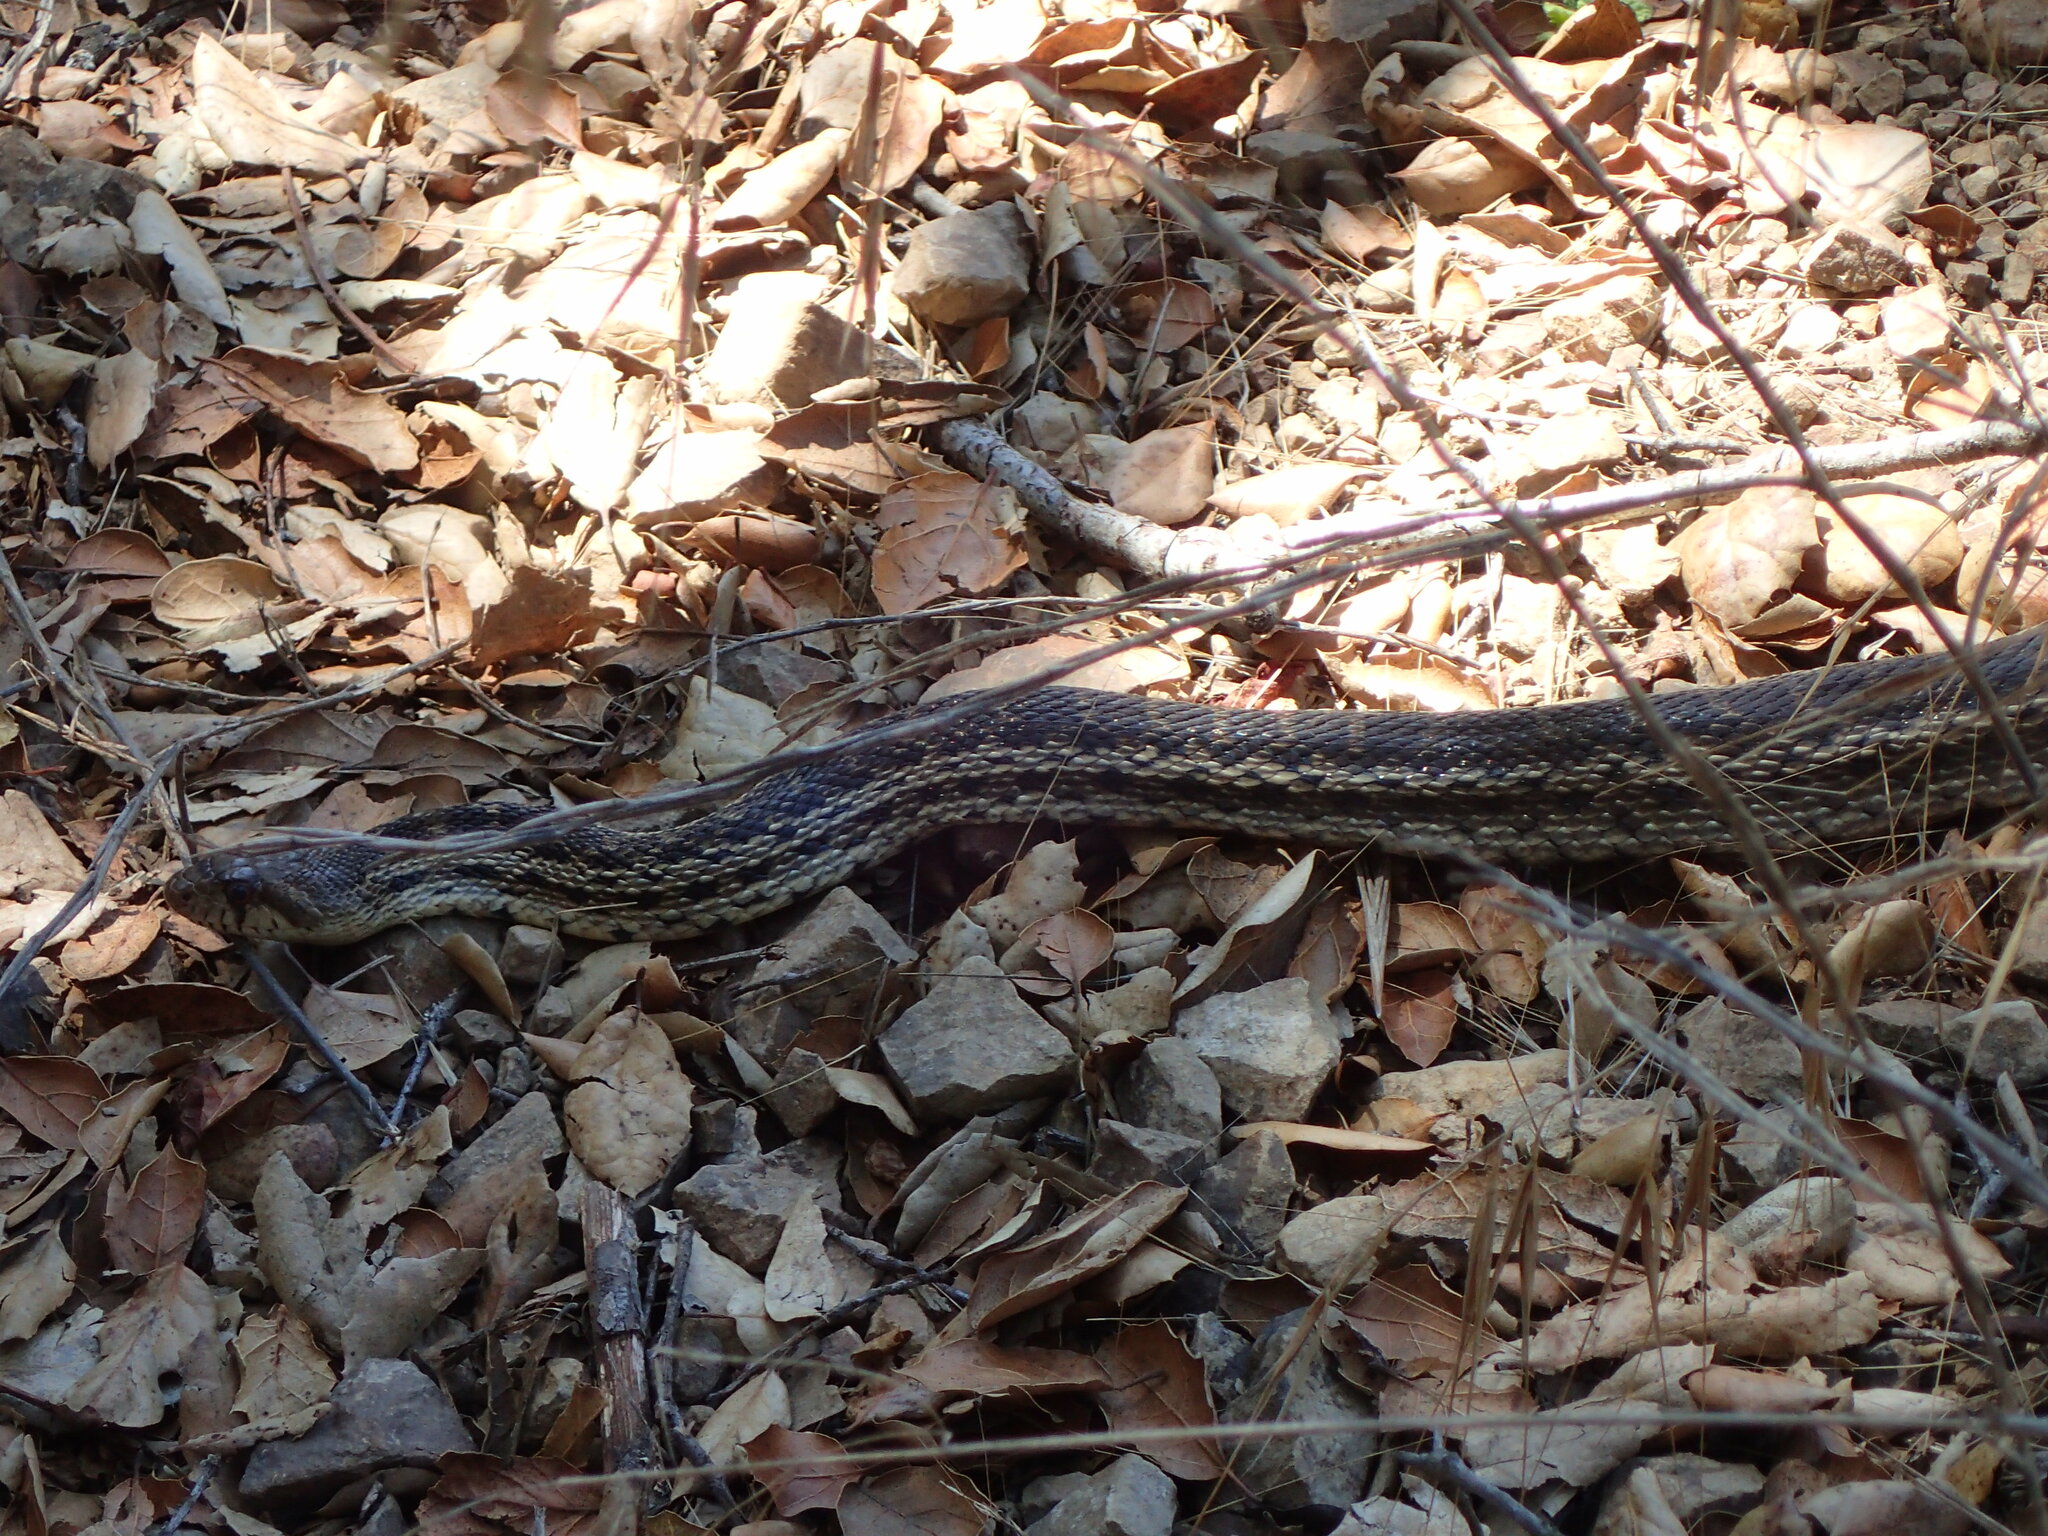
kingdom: Animalia
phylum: Chordata
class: Squamata
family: Colubridae
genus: Pituophis
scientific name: Pituophis catenifer
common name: Gopher snake
